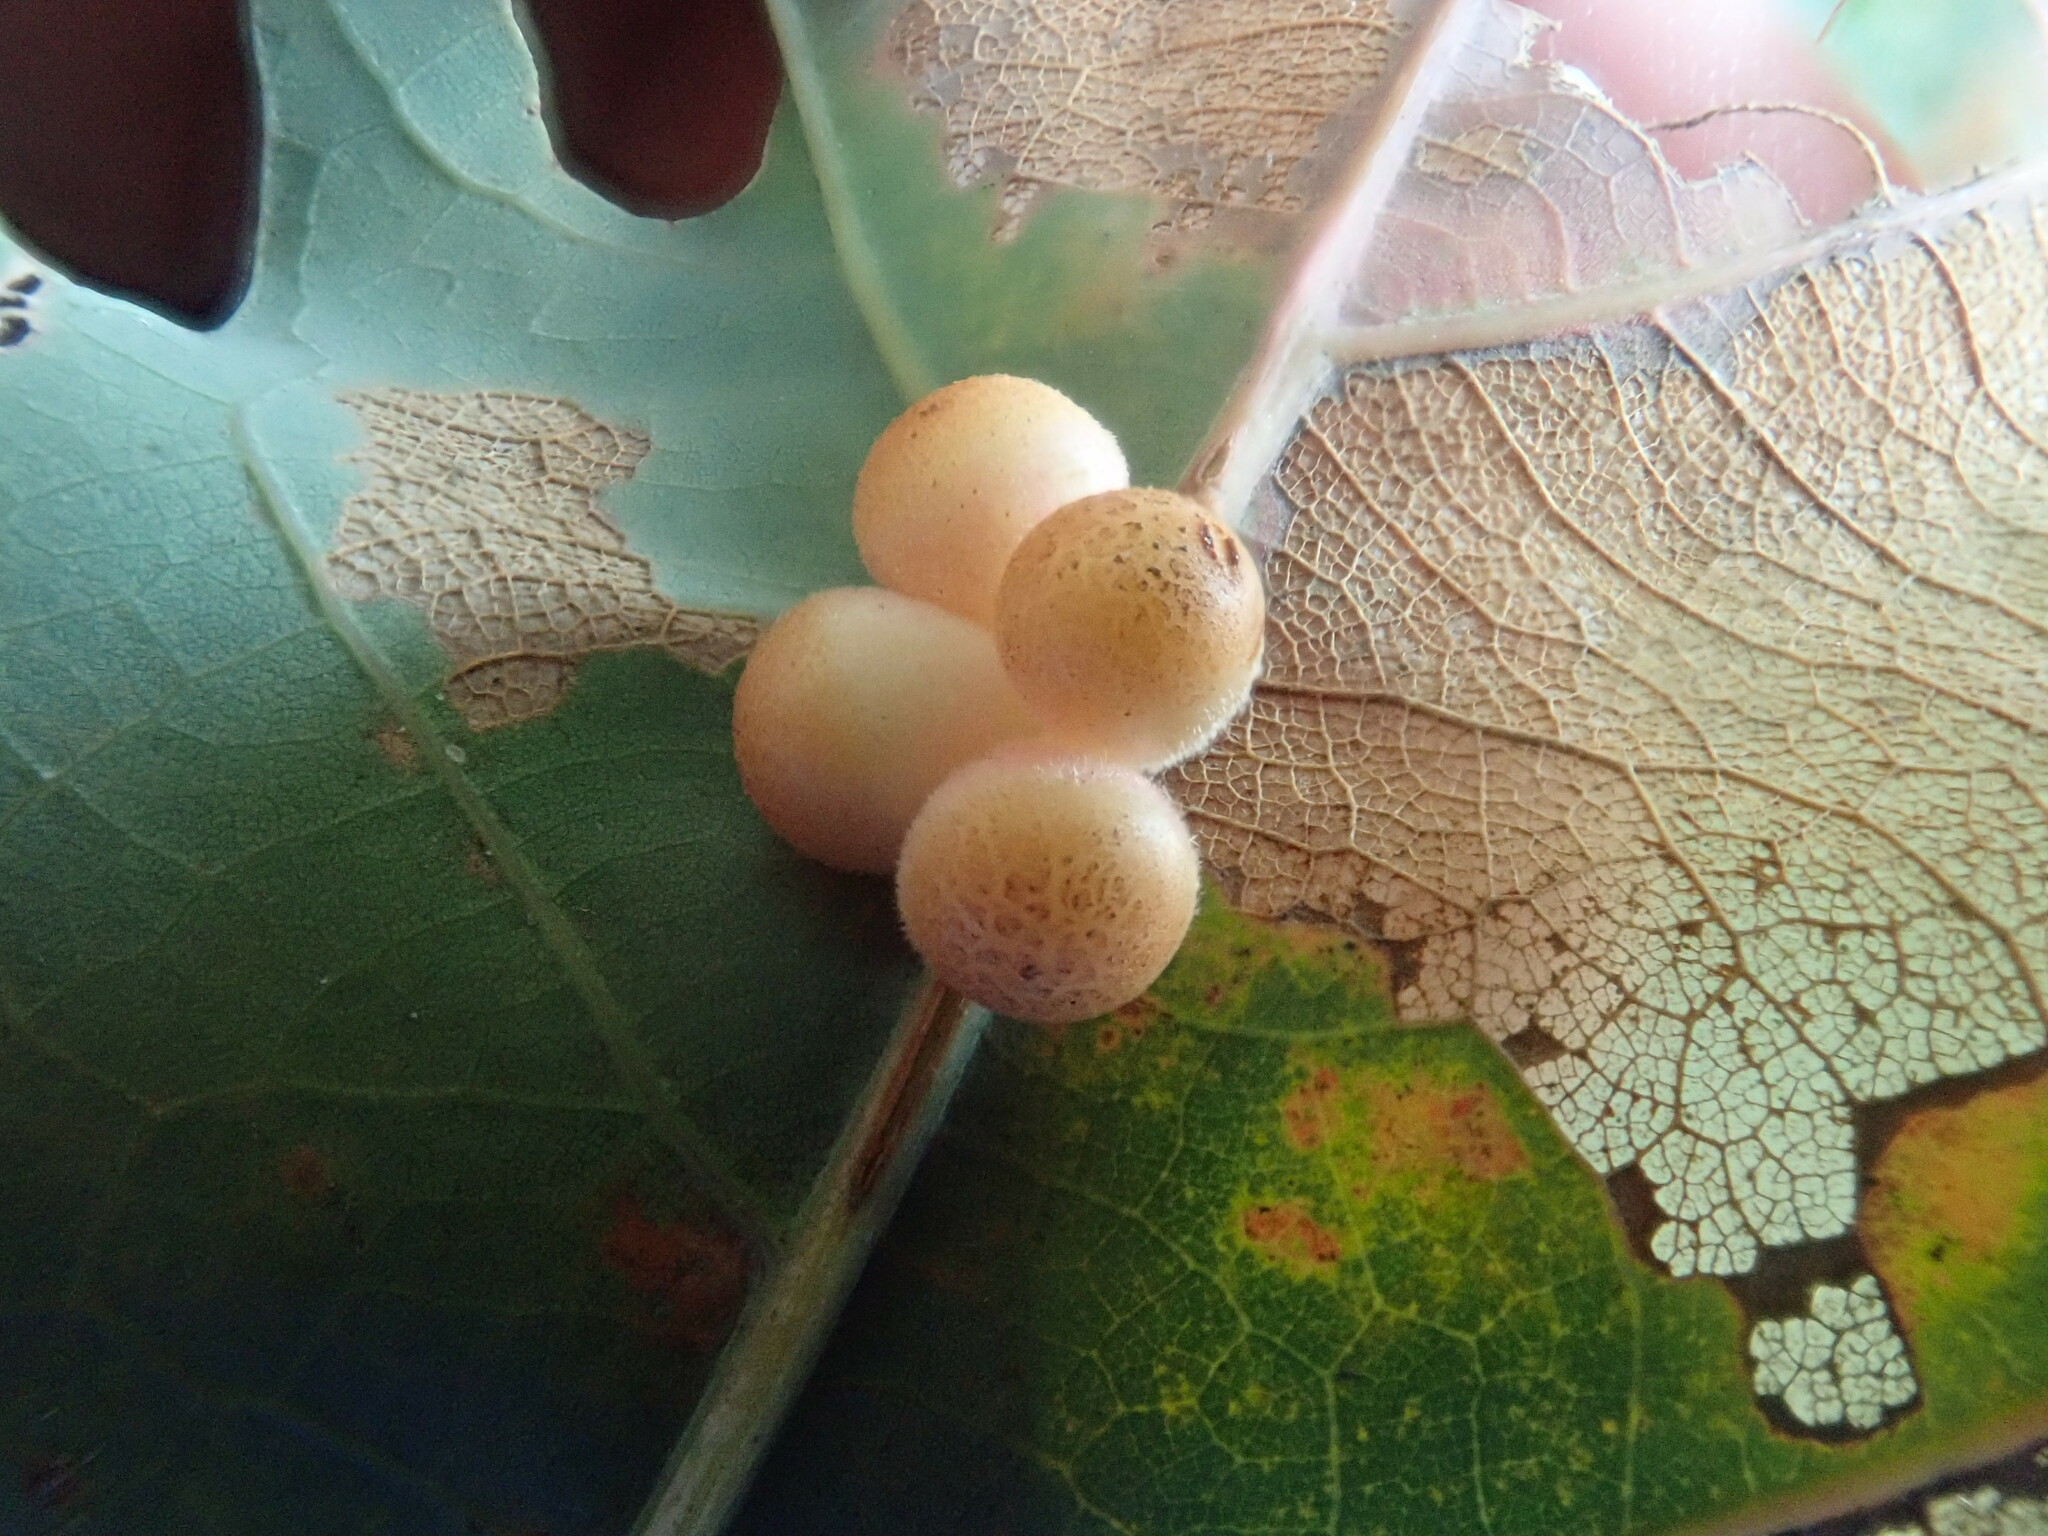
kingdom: Animalia
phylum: Arthropoda
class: Insecta
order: Hymenoptera
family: Cynipidae
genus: Andricus
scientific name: Andricus
